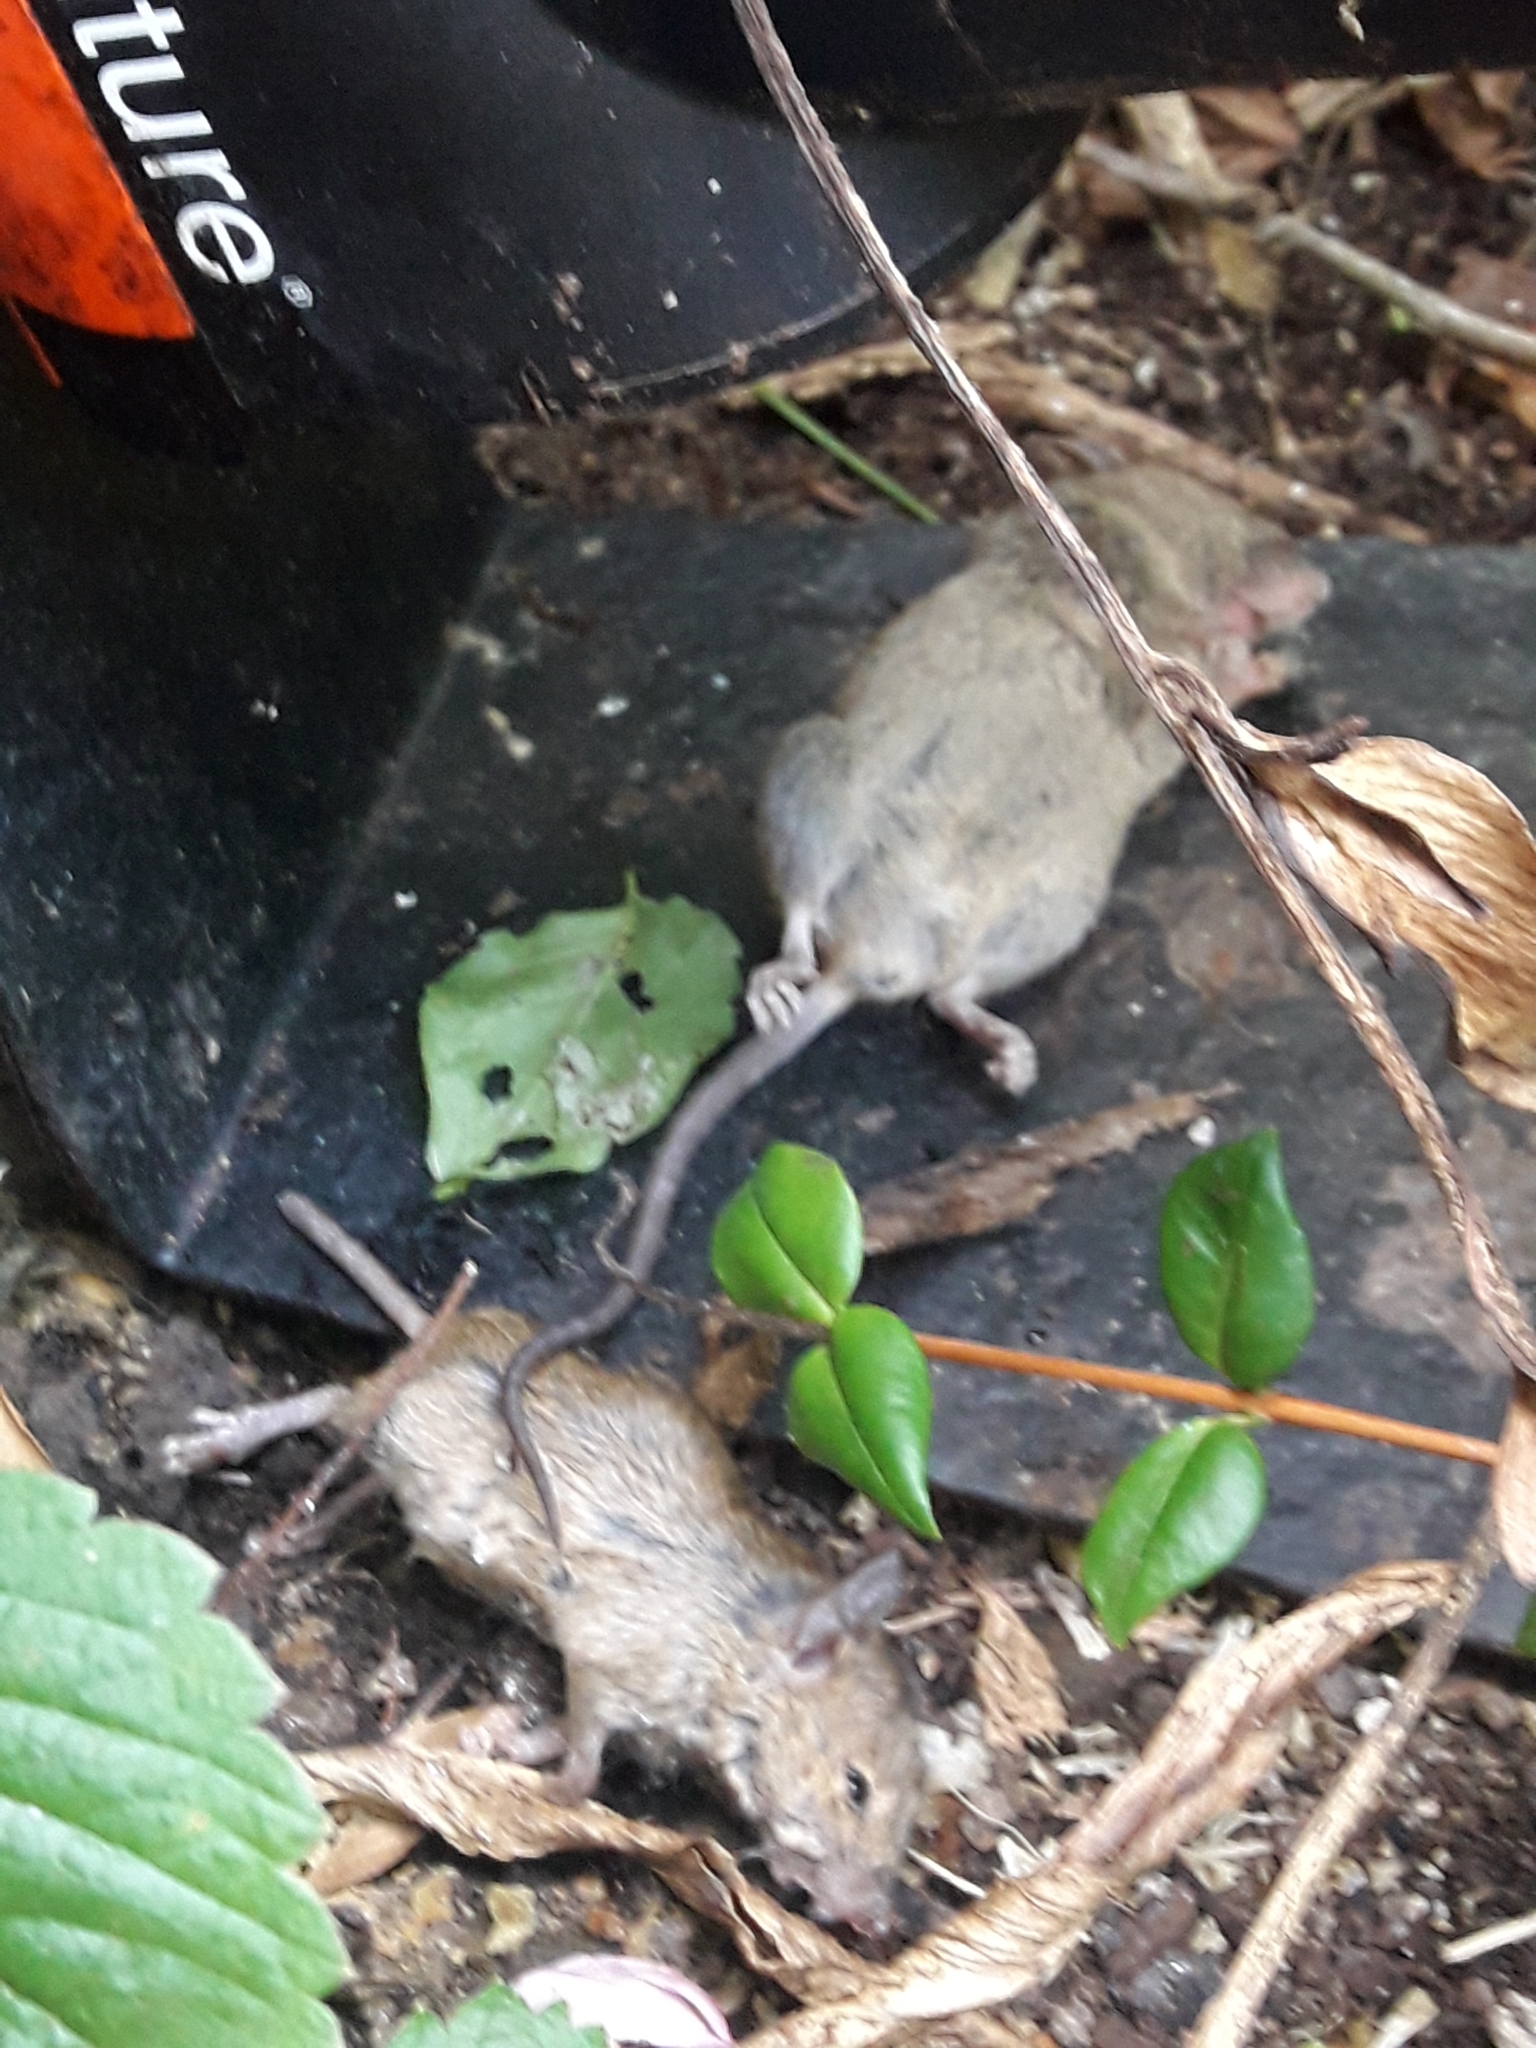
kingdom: Animalia
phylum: Chordata
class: Mammalia
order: Rodentia
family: Muridae
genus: Mus
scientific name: Mus musculus
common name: House mouse
